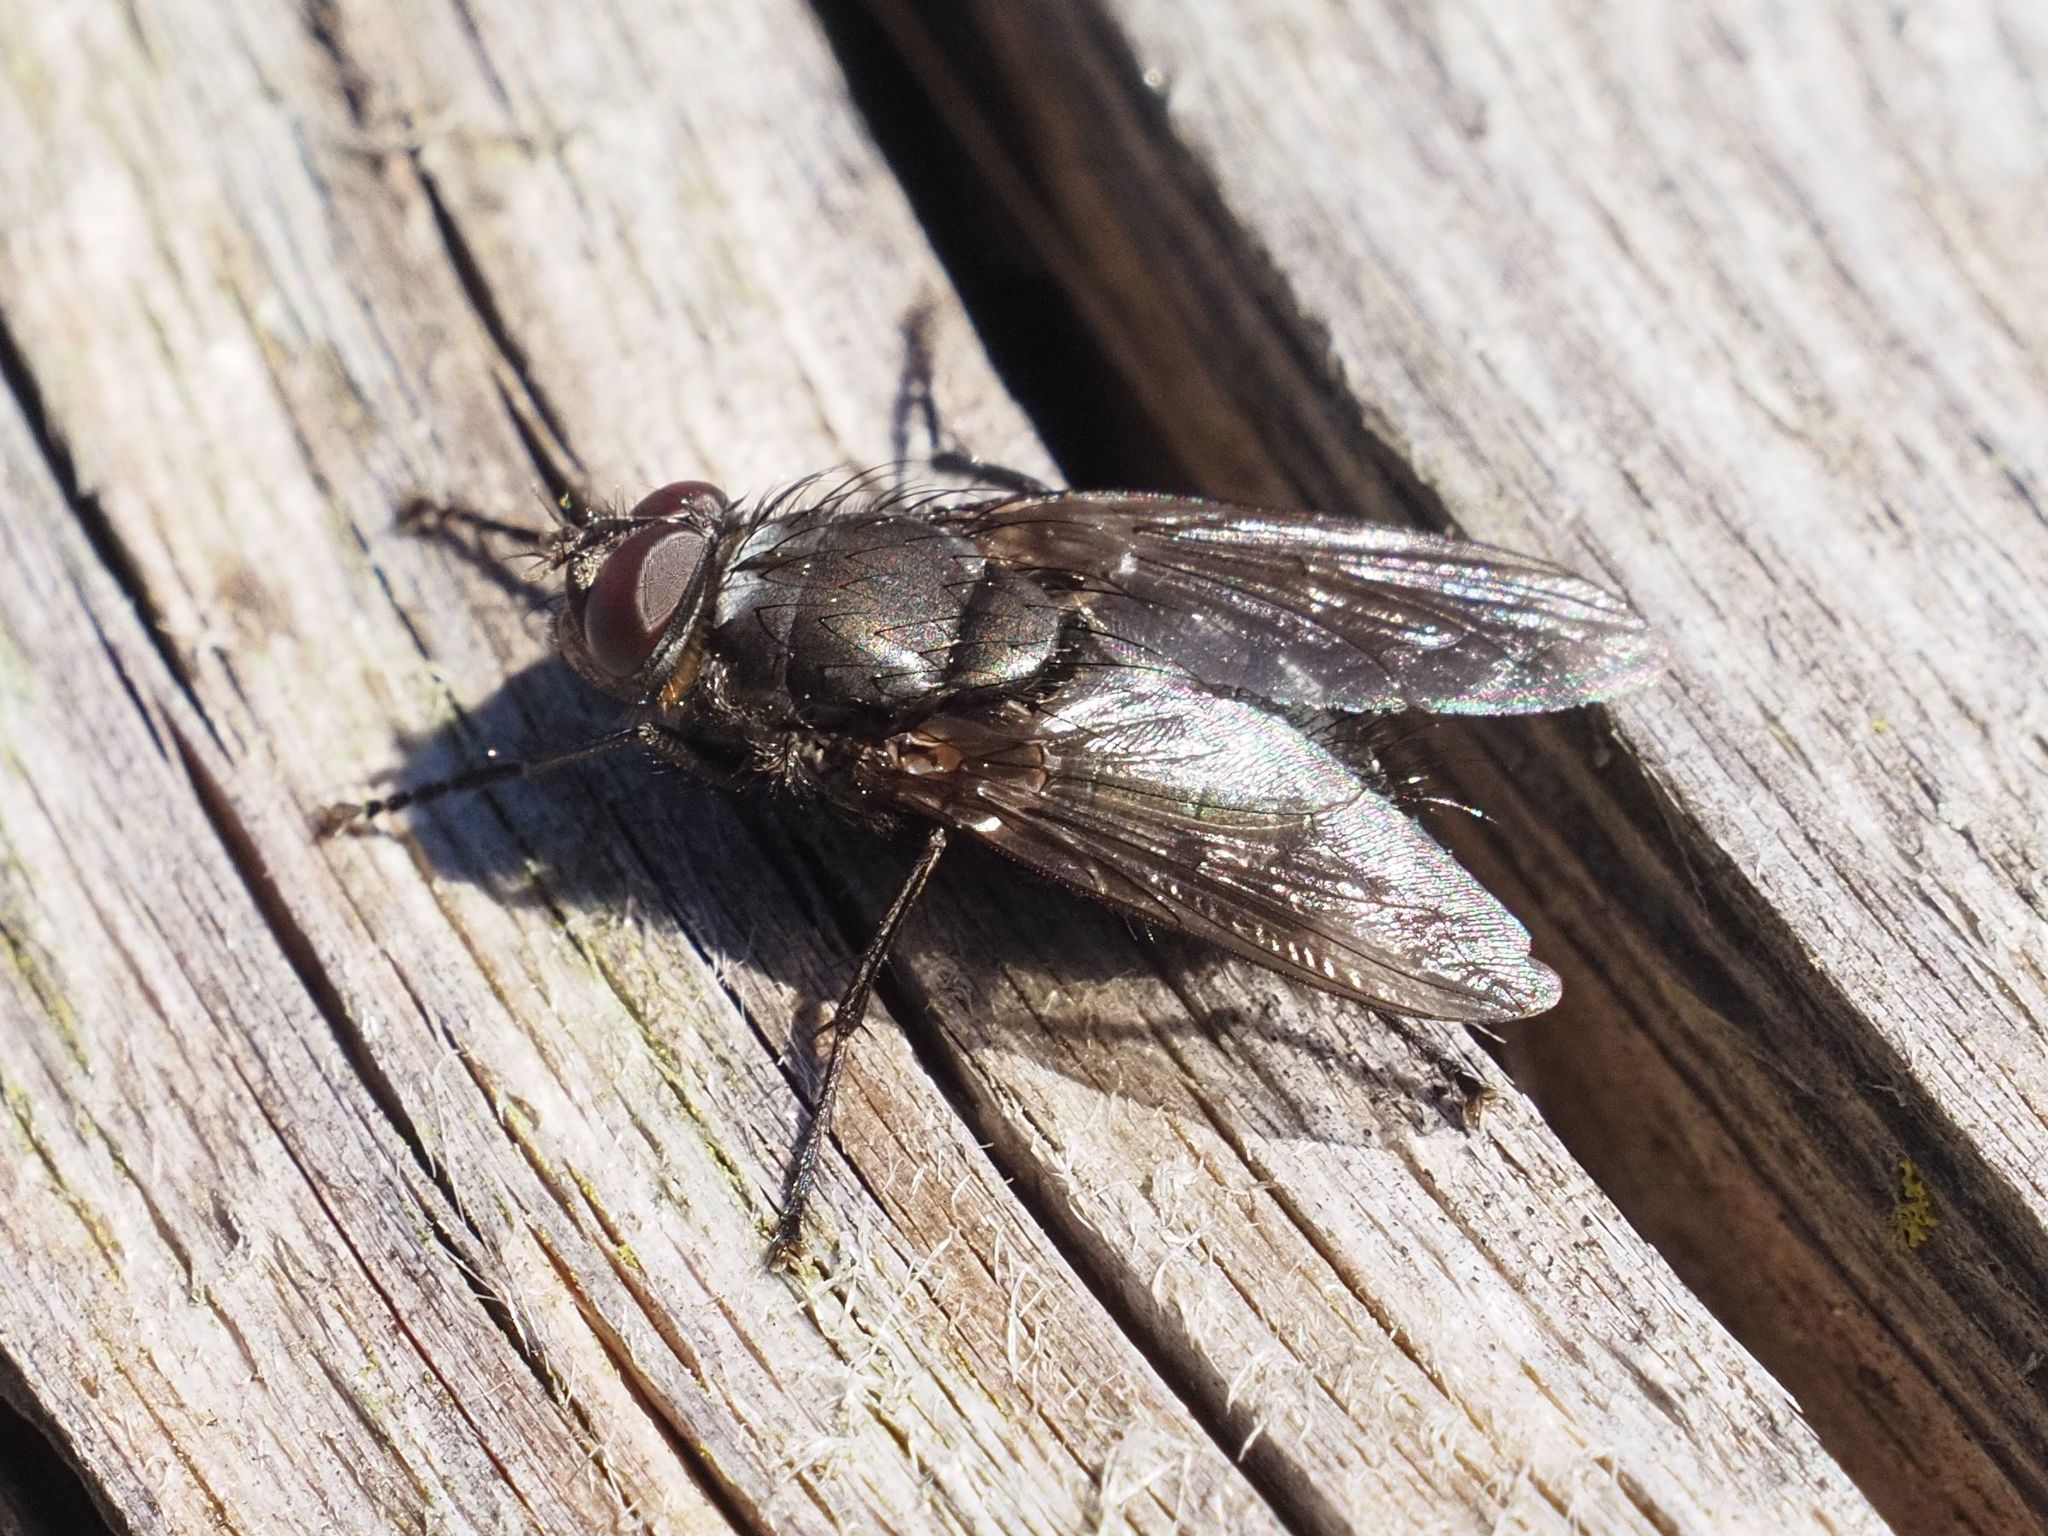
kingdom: Animalia
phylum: Arthropoda
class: Insecta
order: Diptera
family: Polleniidae
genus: Pollenia
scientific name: Pollenia vagabunda
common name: Vagabund cluster fly
